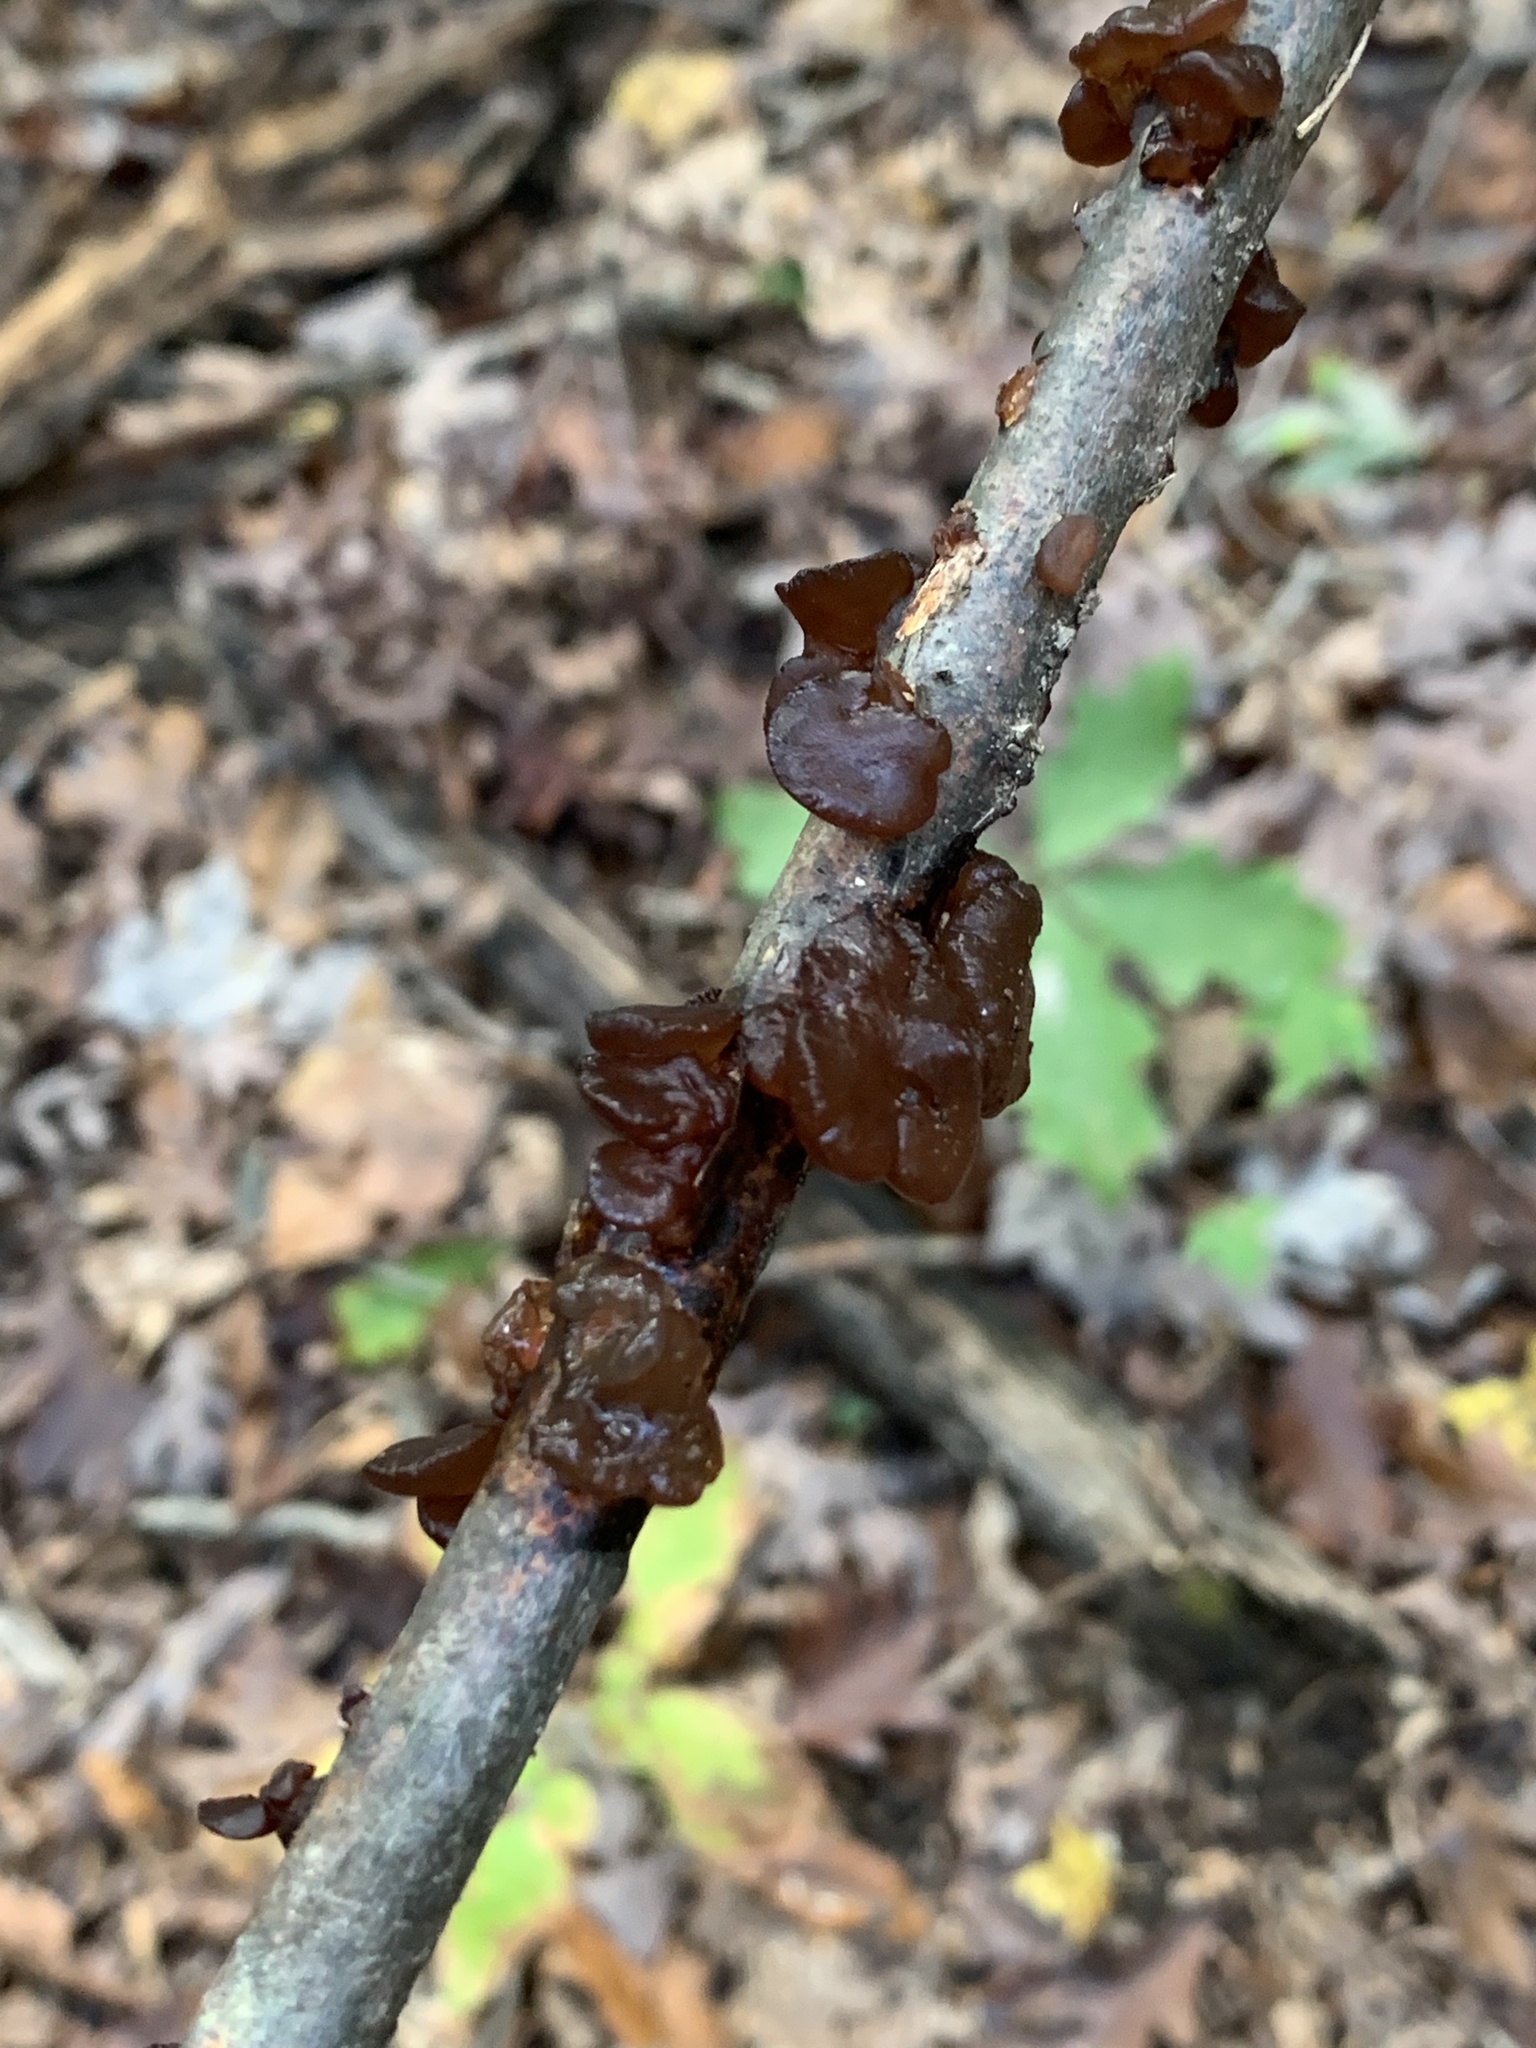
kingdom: Fungi
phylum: Basidiomycota
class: Agaricomycetes
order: Auriculariales
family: Auriculariaceae
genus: Exidia
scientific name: Exidia
